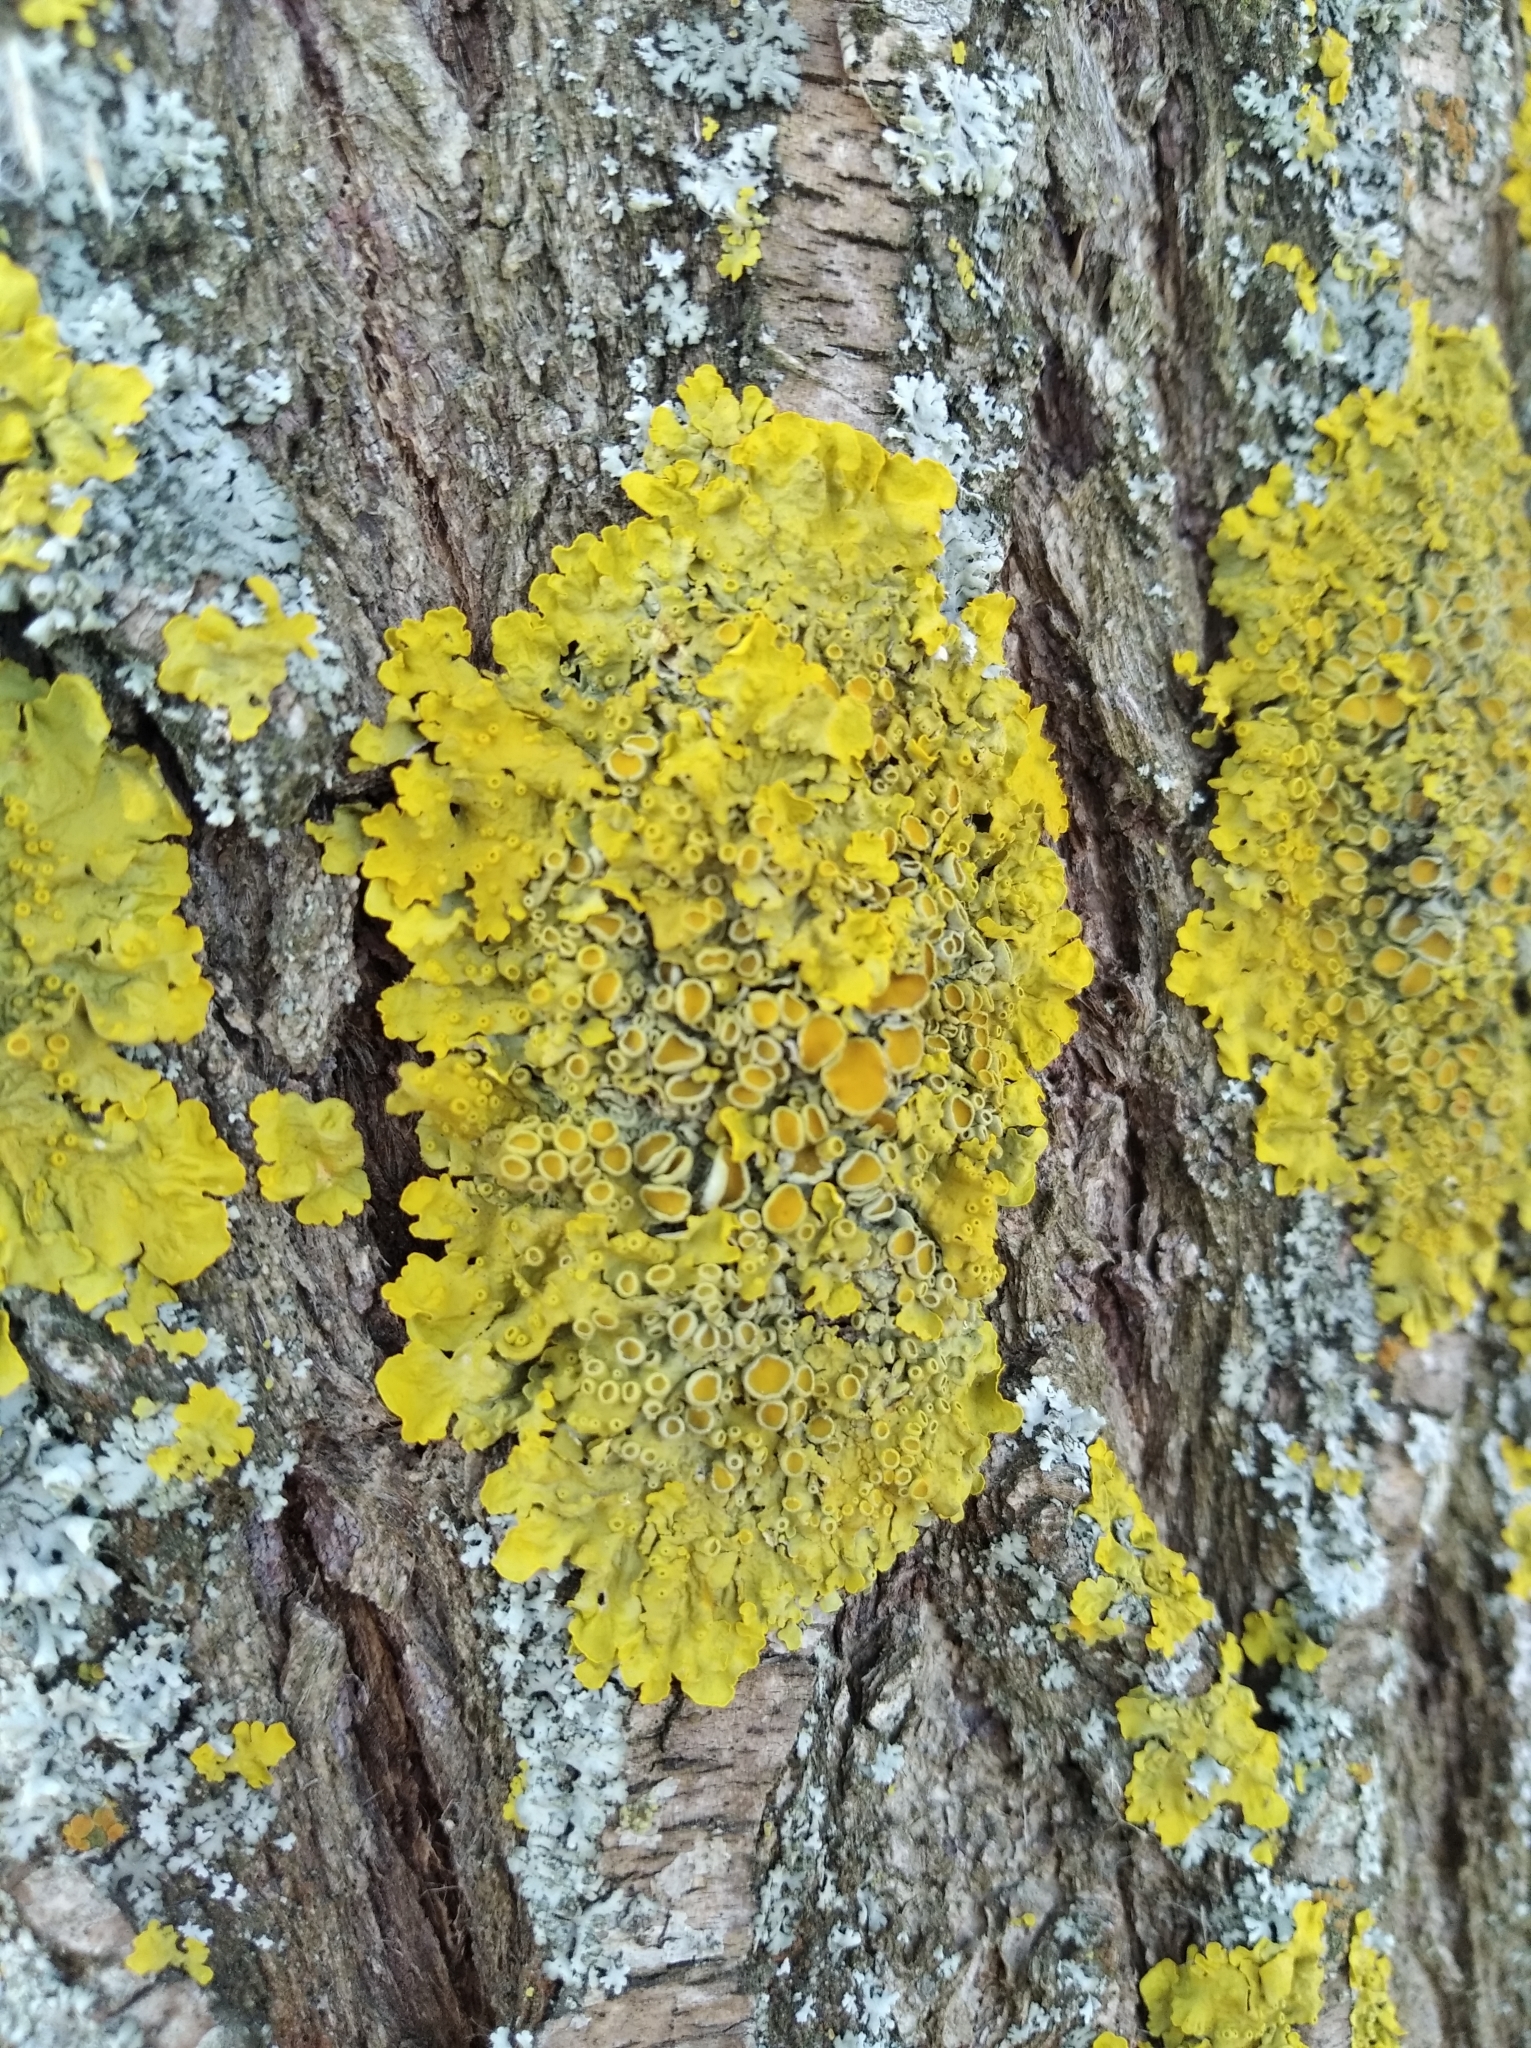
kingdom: Fungi
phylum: Ascomycota
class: Lecanoromycetes
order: Teloschistales
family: Teloschistaceae
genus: Xanthoria
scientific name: Xanthoria parietina
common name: Common orange lichen
